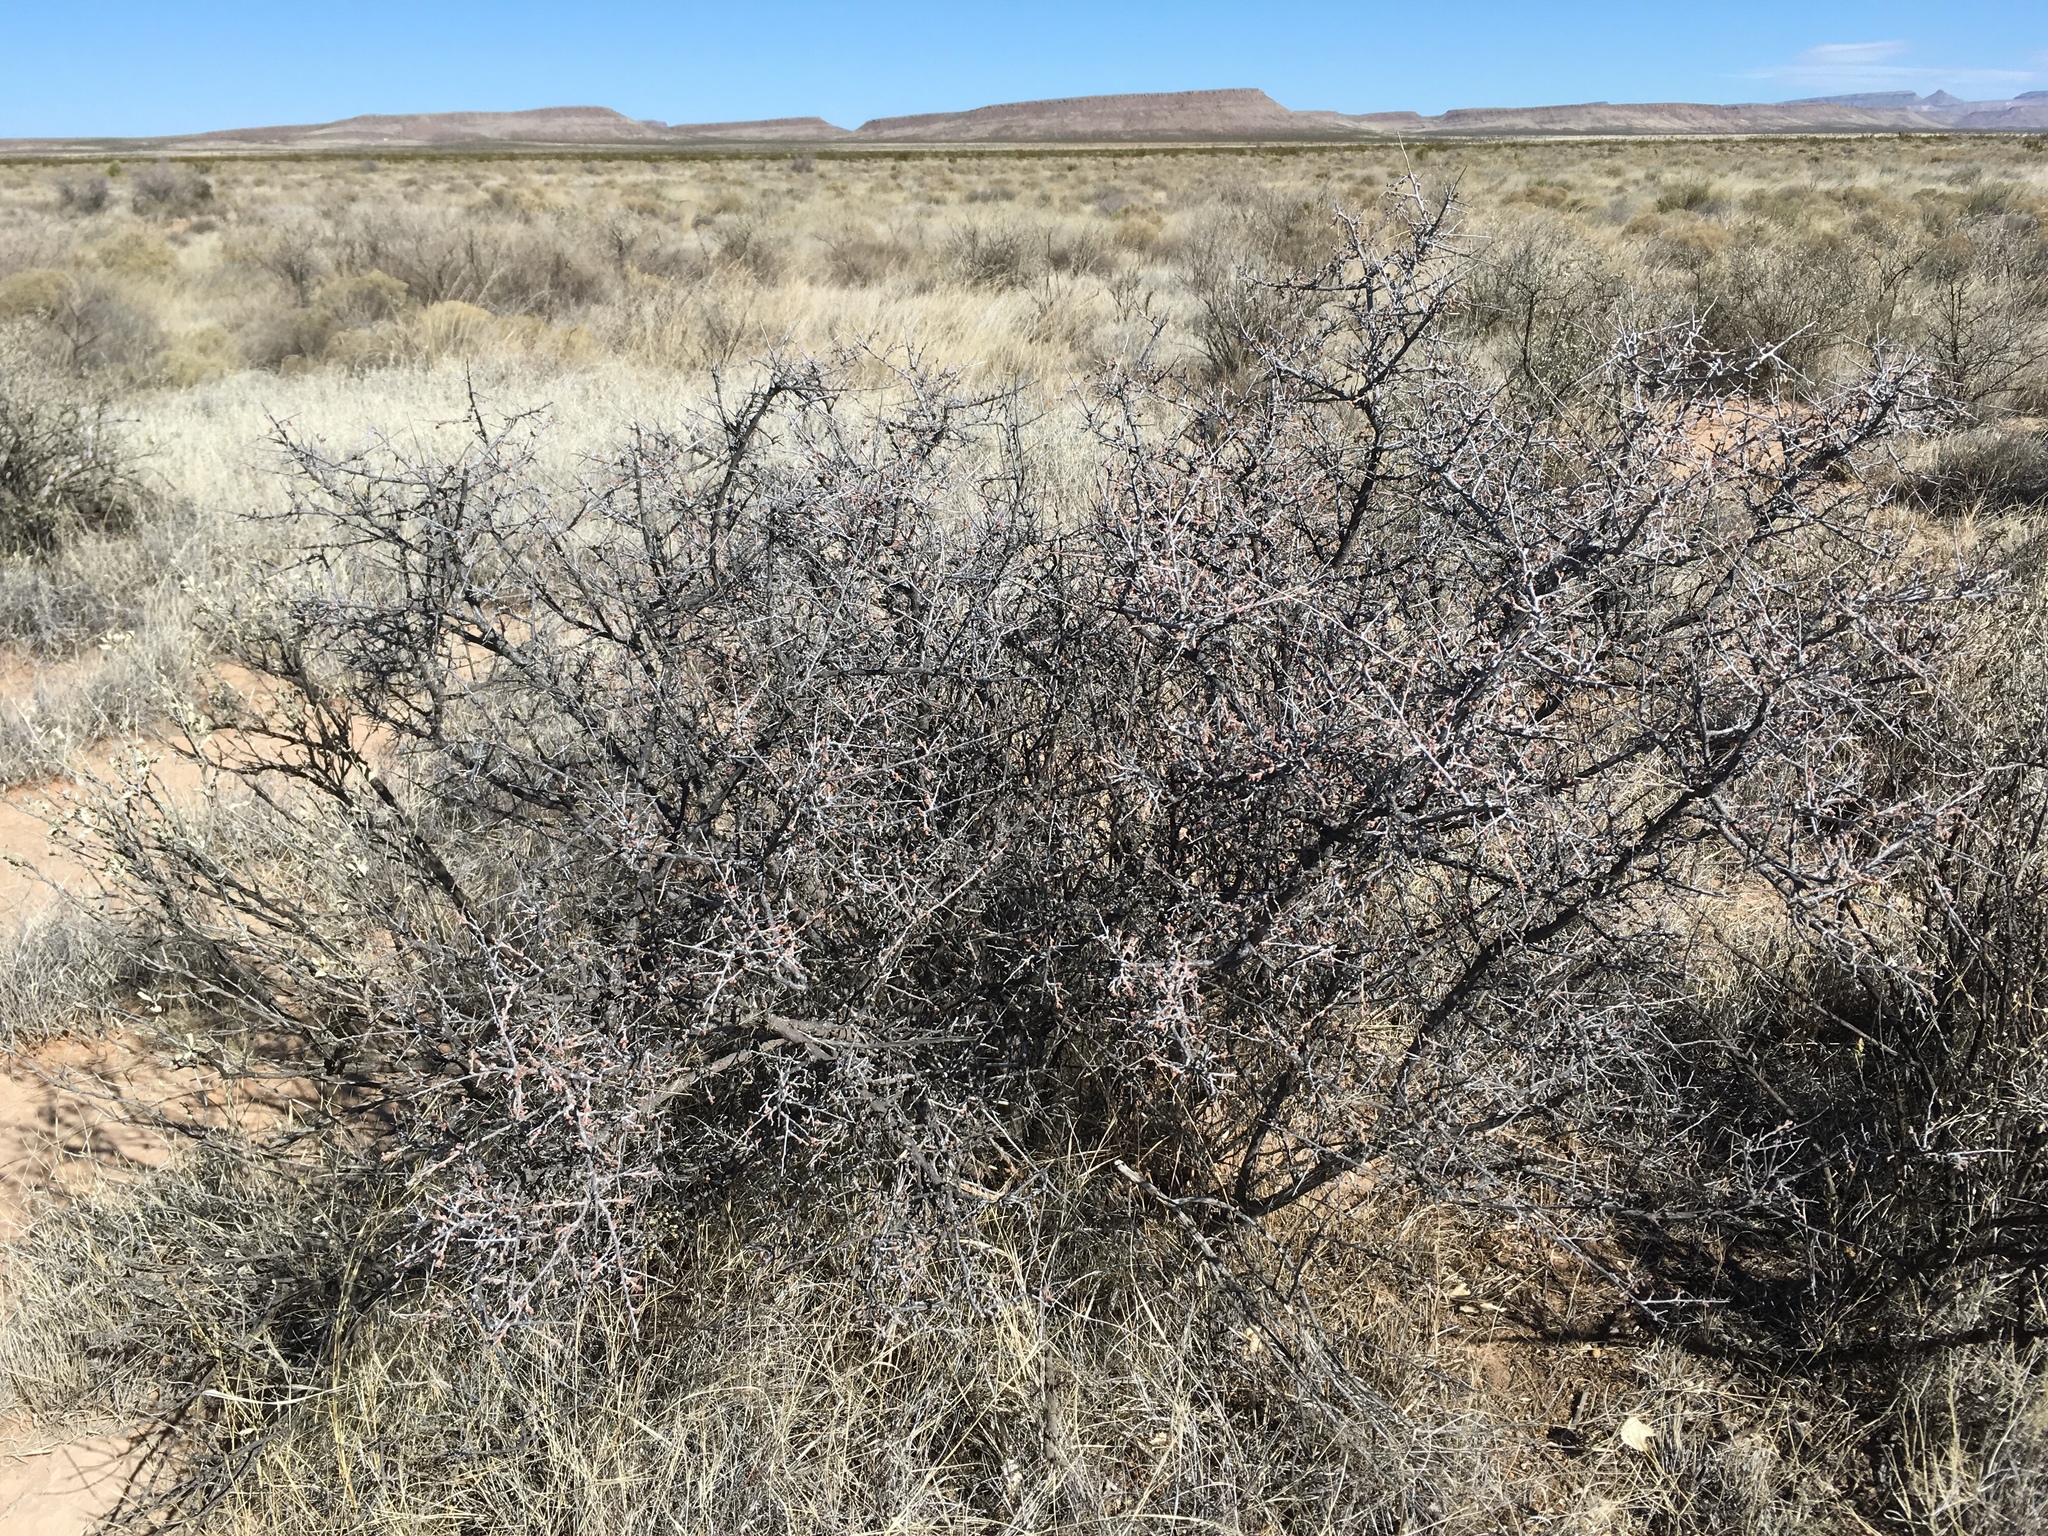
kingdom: Plantae
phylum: Tracheophyta
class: Magnoliopsida
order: Sapindales
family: Anacardiaceae
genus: Rhus
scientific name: Rhus microphylla
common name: Desert sumac
